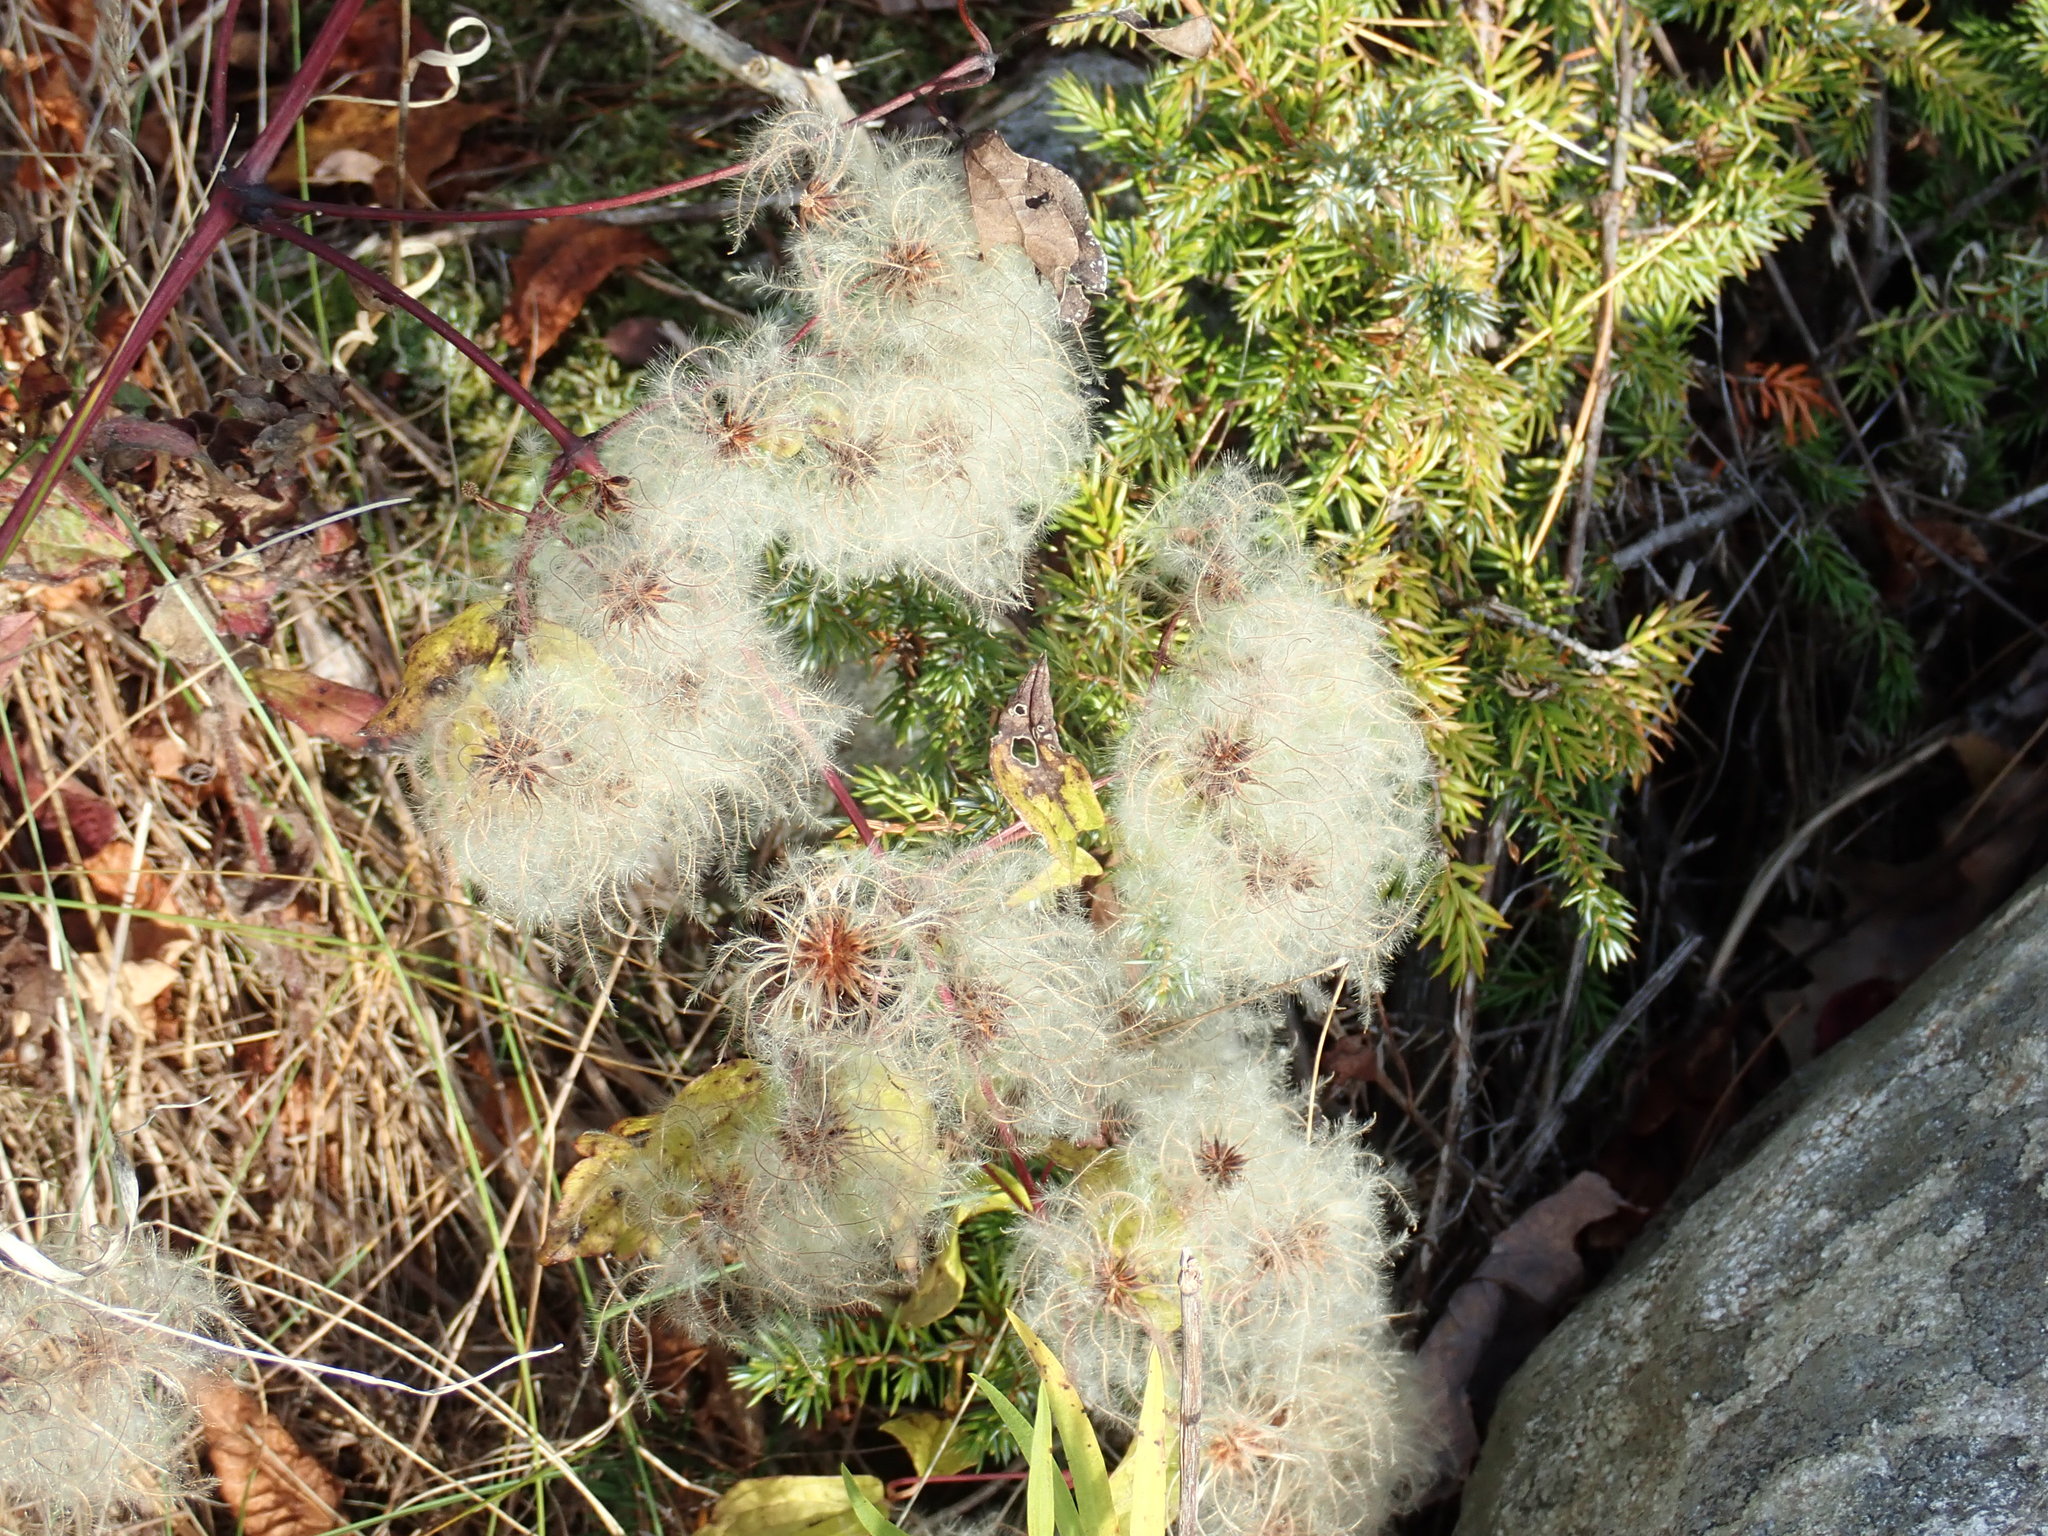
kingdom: Plantae
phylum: Tracheophyta
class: Magnoliopsida
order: Ranunculales
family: Ranunculaceae
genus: Clematis
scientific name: Clematis virginiana
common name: Virgin's-bower
